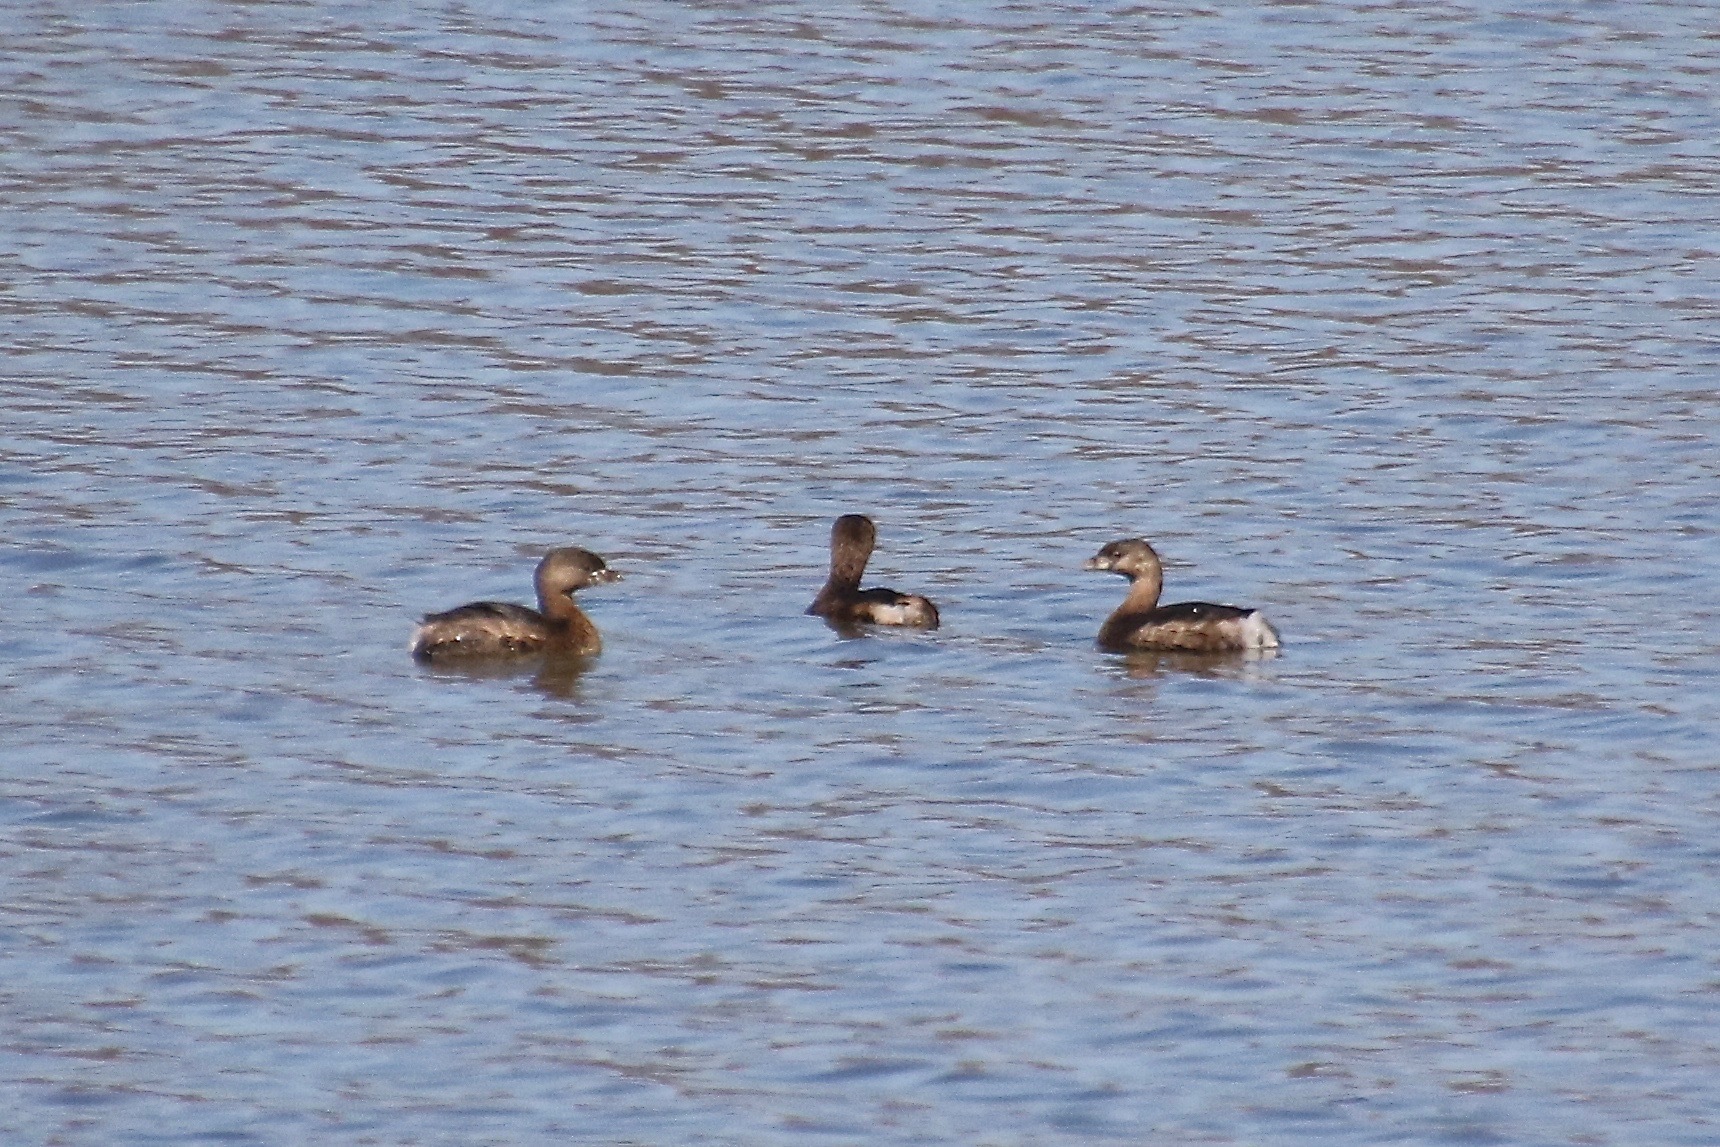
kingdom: Animalia
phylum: Chordata
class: Aves
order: Podicipediformes
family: Podicipedidae
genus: Podilymbus
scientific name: Podilymbus podiceps
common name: Pied-billed grebe
